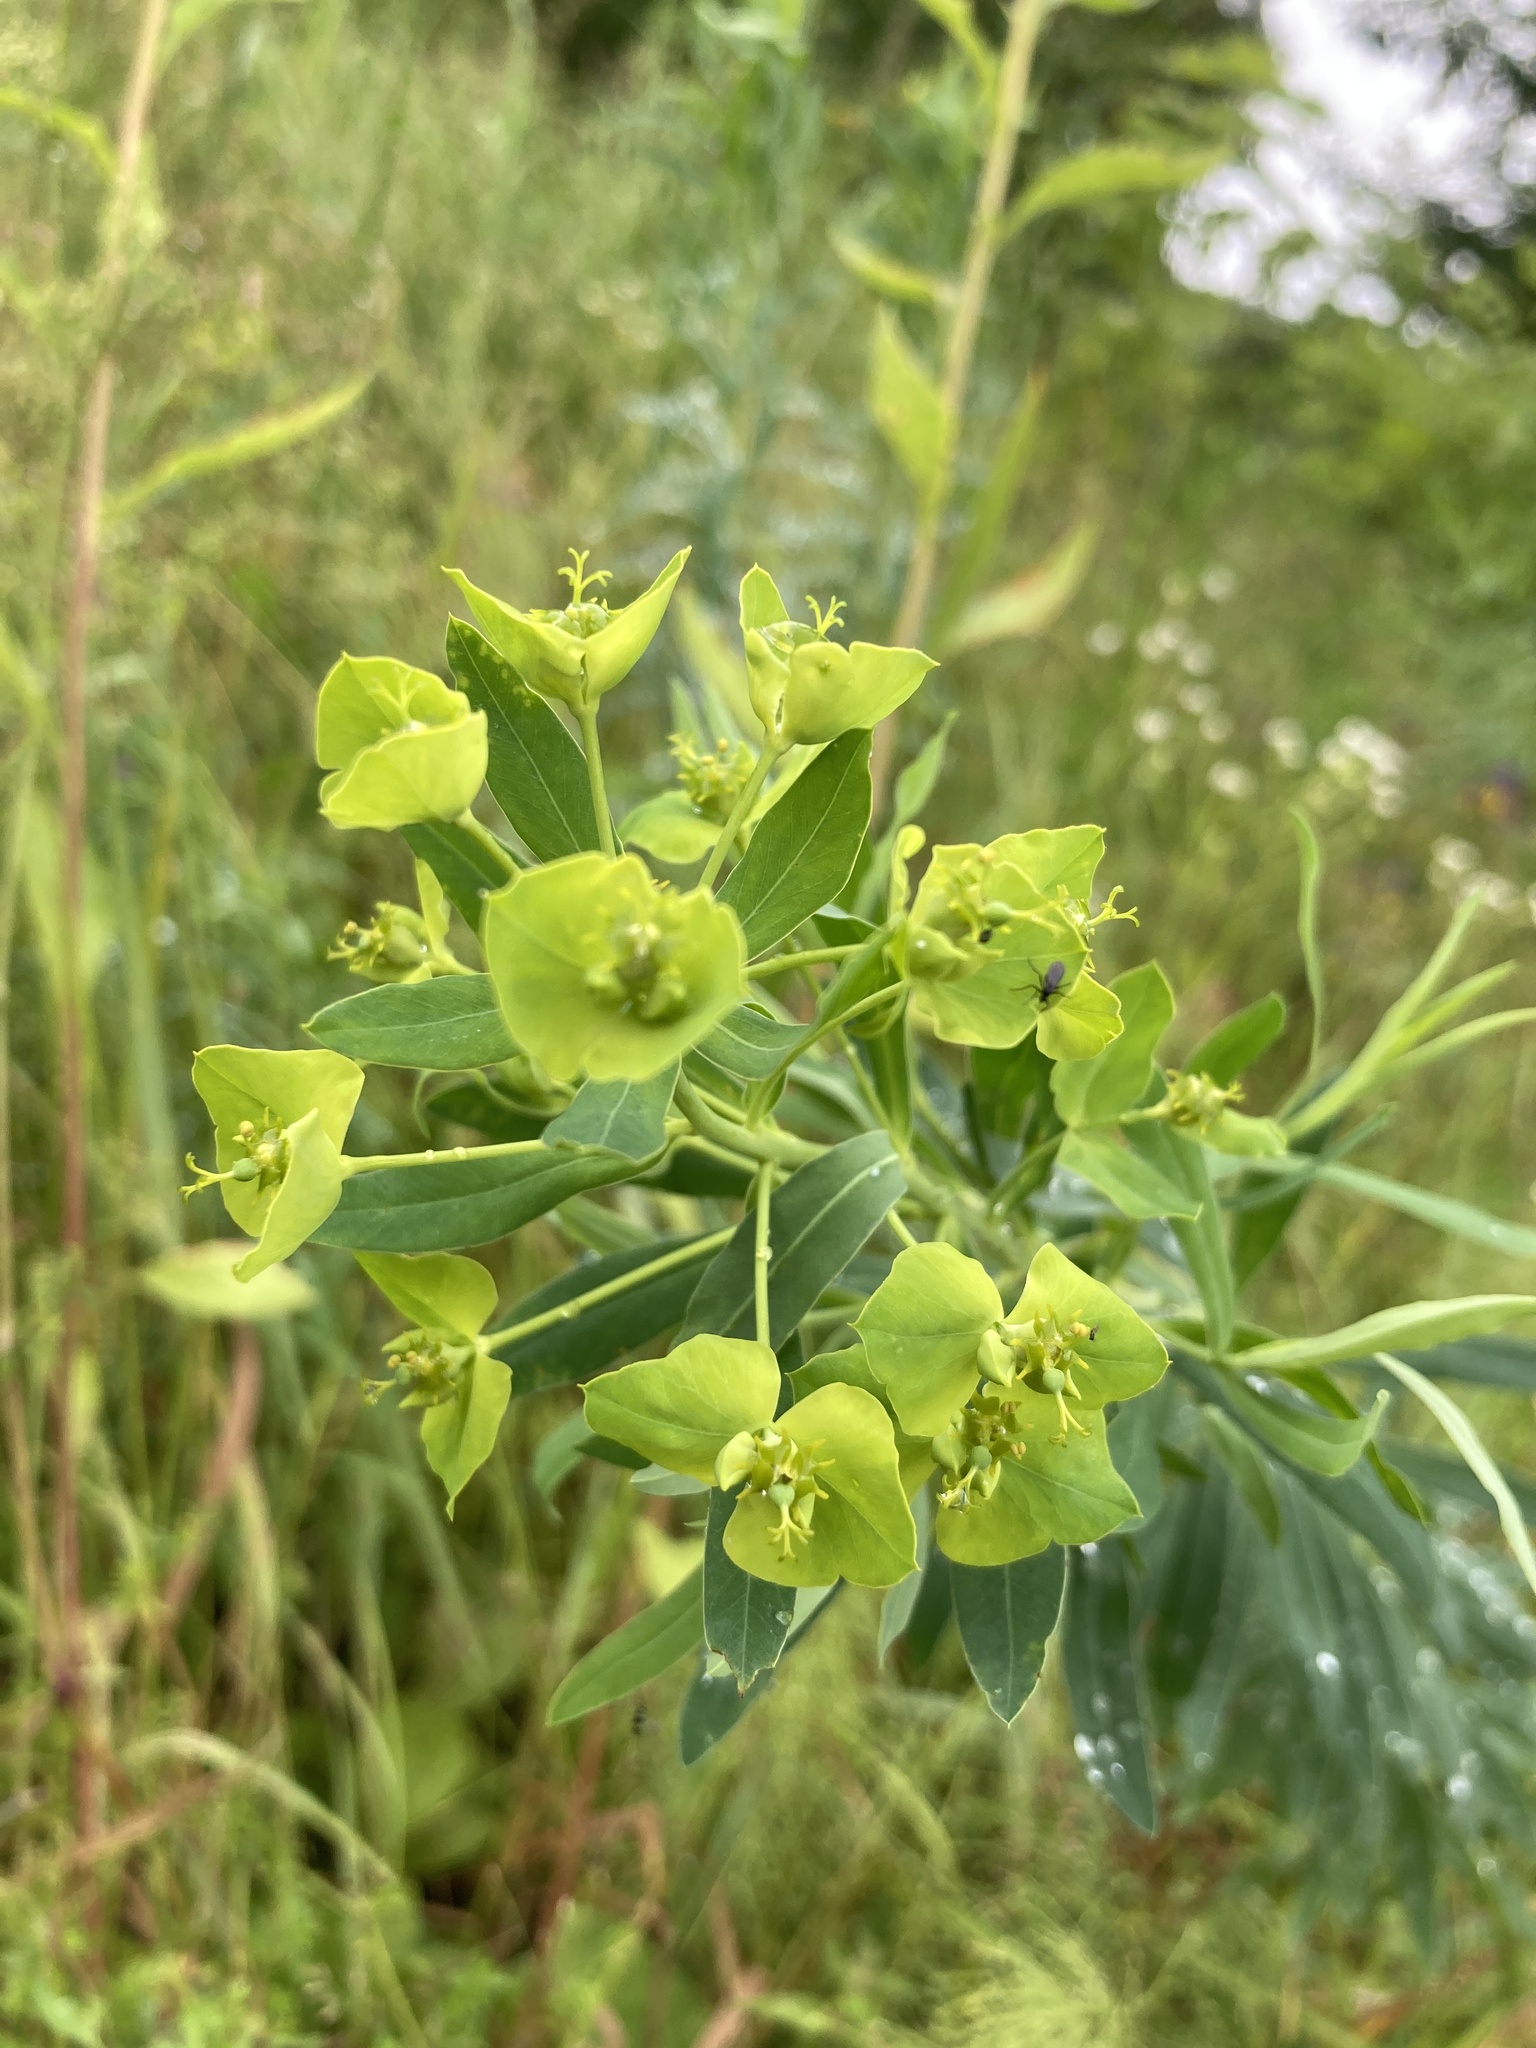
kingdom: Plantae
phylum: Tracheophyta
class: Magnoliopsida
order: Malpighiales
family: Euphorbiaceae
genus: Euphorbia
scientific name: Euphorbia virgata
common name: Leafy spurge
